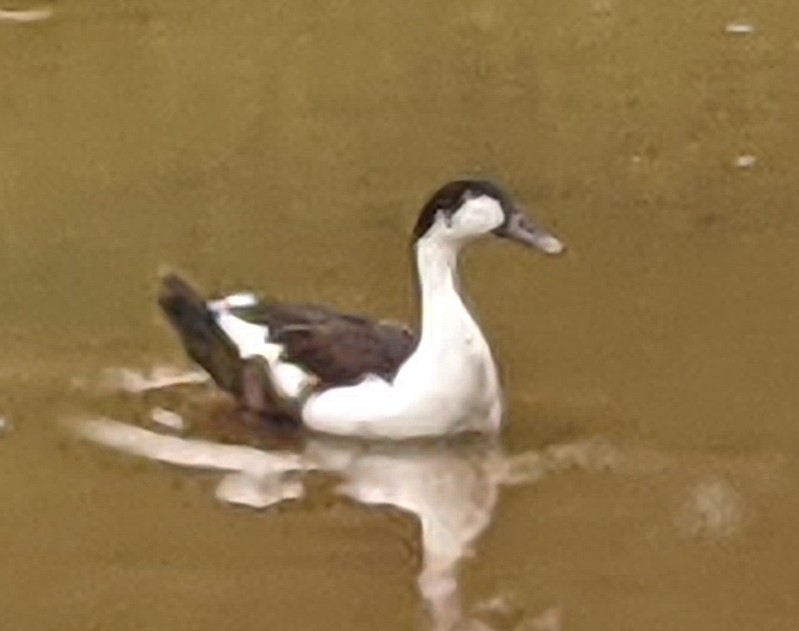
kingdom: Animalia
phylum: Chordata
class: Aves
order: Anseriformes
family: Anatidae
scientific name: Anatidae
